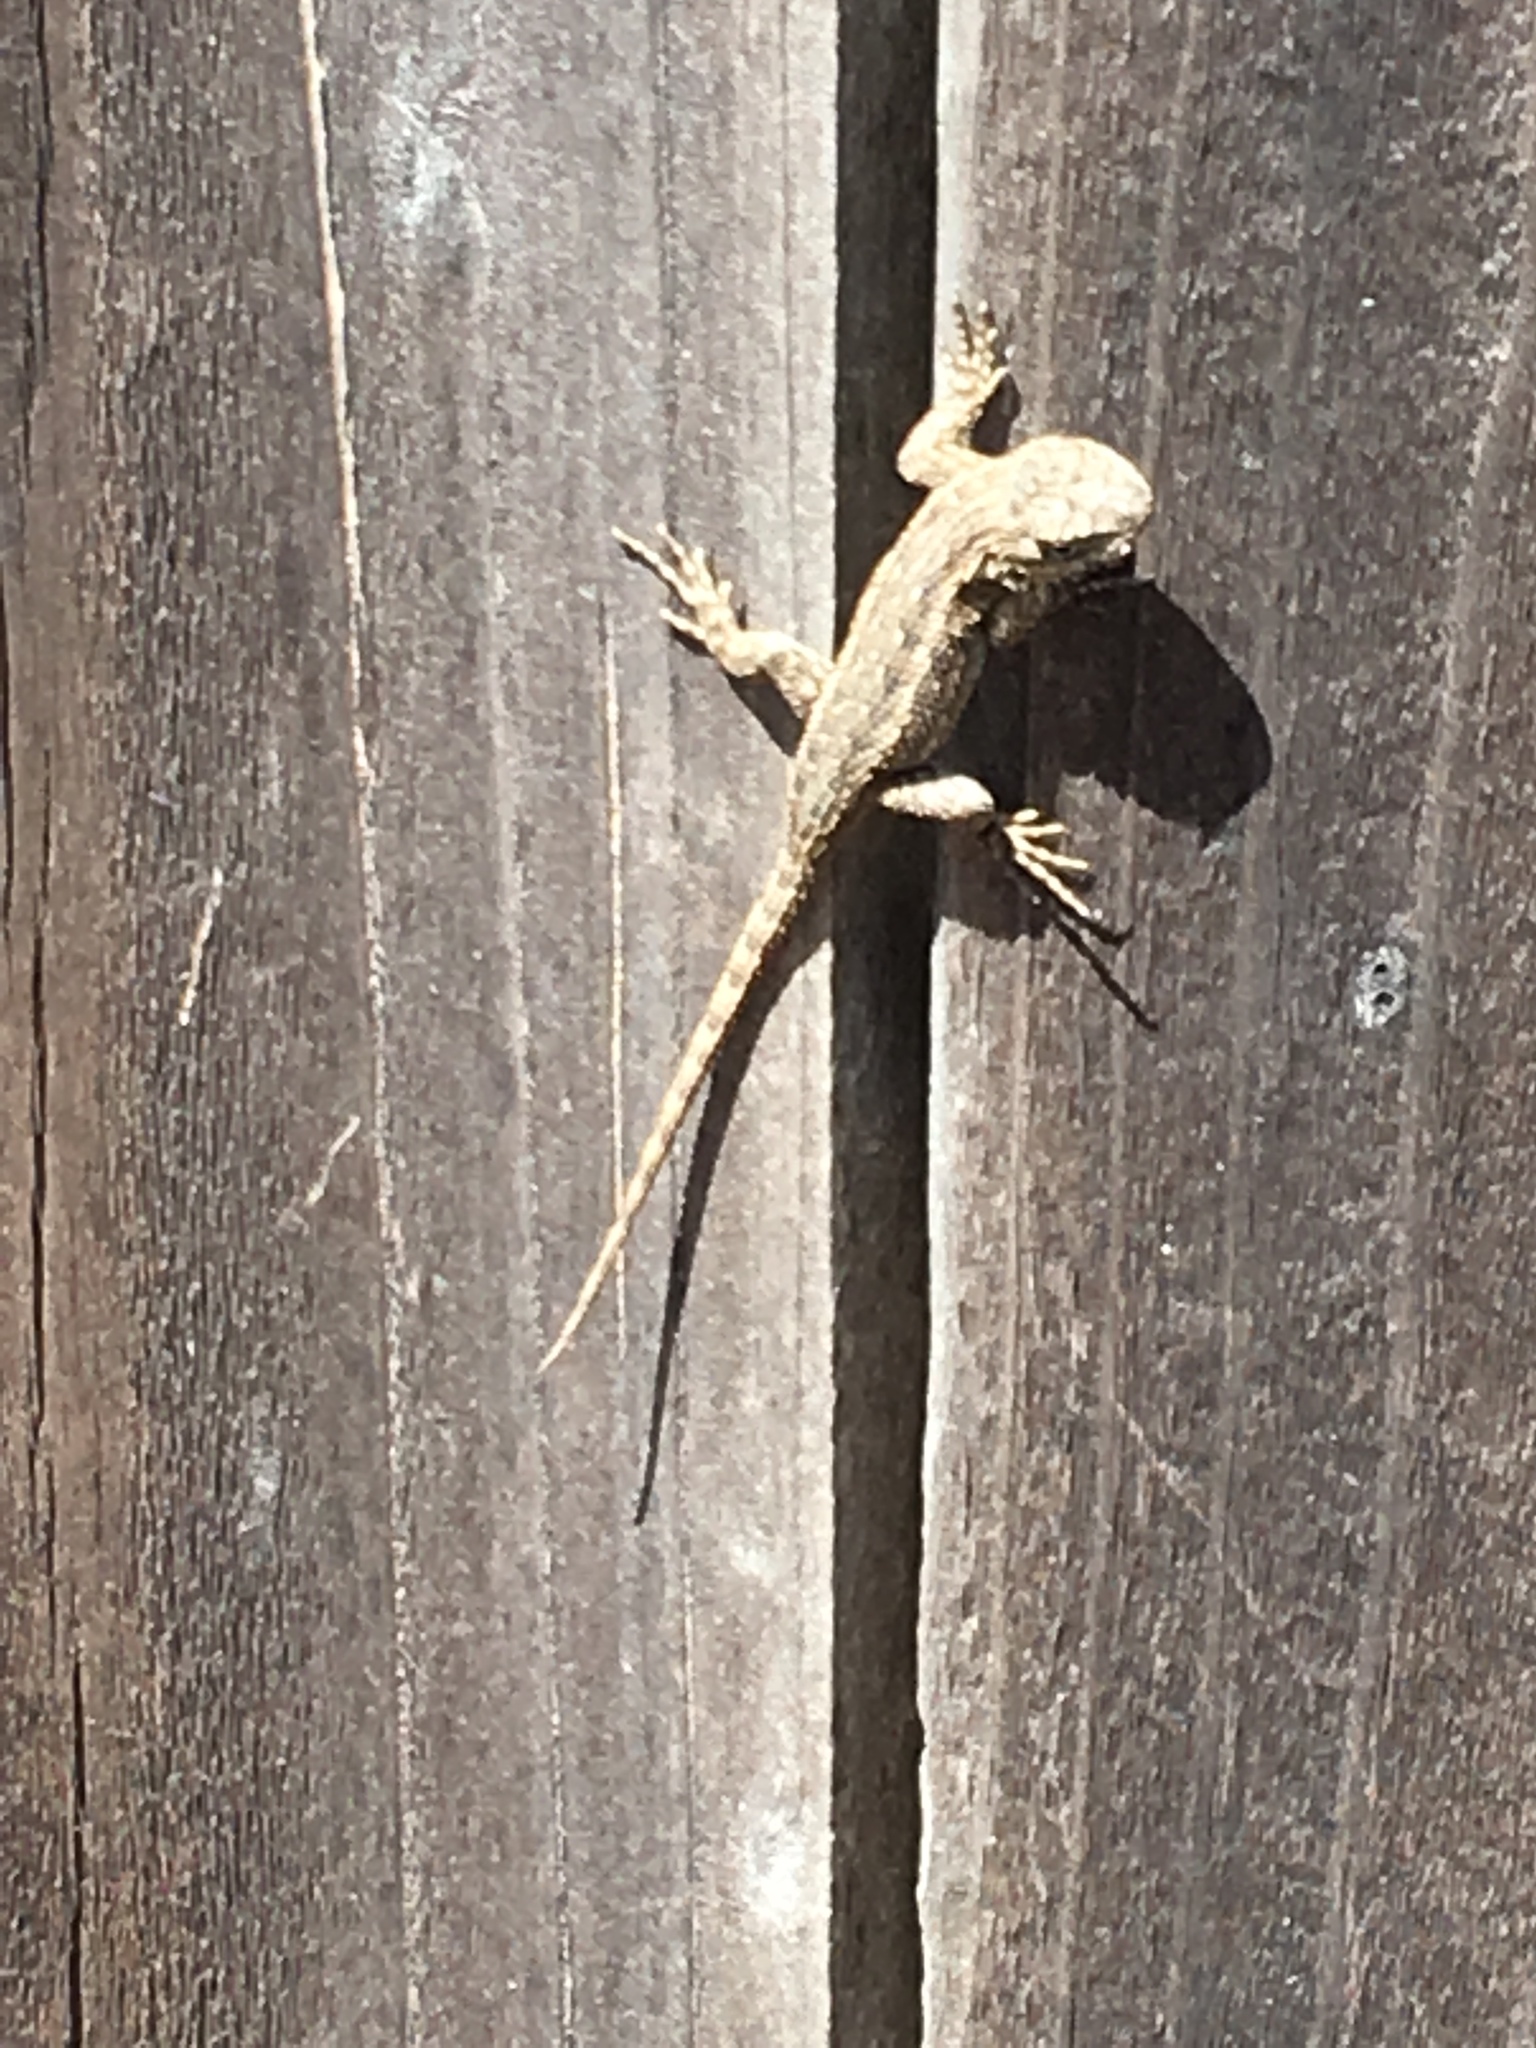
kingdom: Animalia
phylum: Chordata
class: Squamata
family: Phrynosomatidae
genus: Sceloporus
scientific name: Sceloporus occidentalis
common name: Western fence lizard
